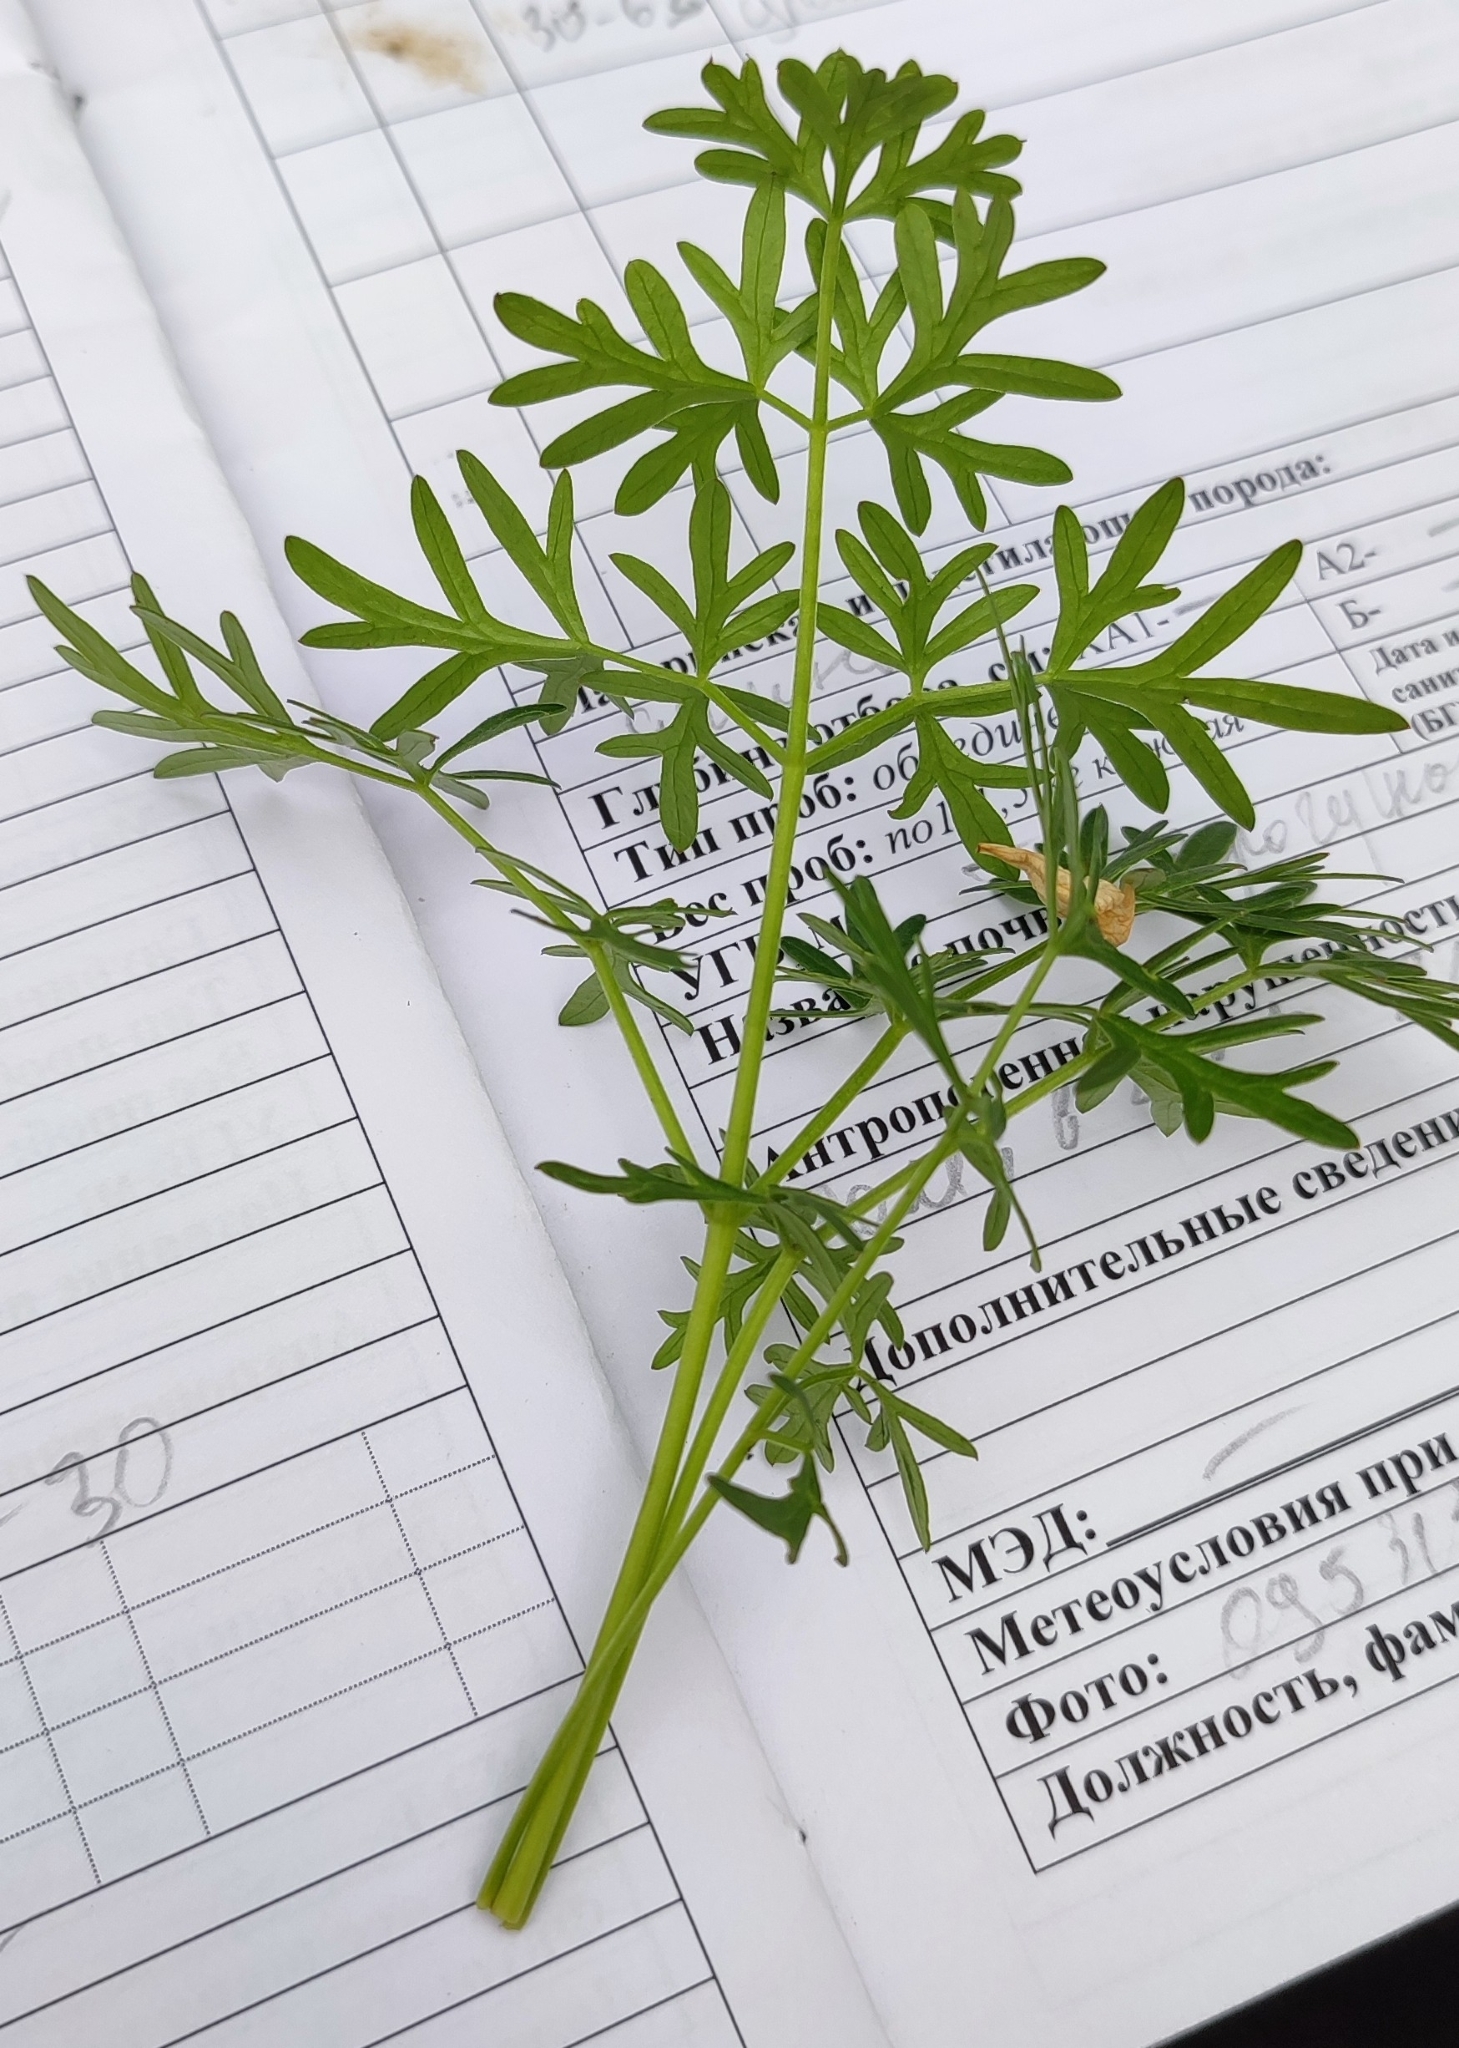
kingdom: Plantae
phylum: Tracheophyta
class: Magnoliopsida
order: Apiales
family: Apiaceae
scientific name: Apiaceae
